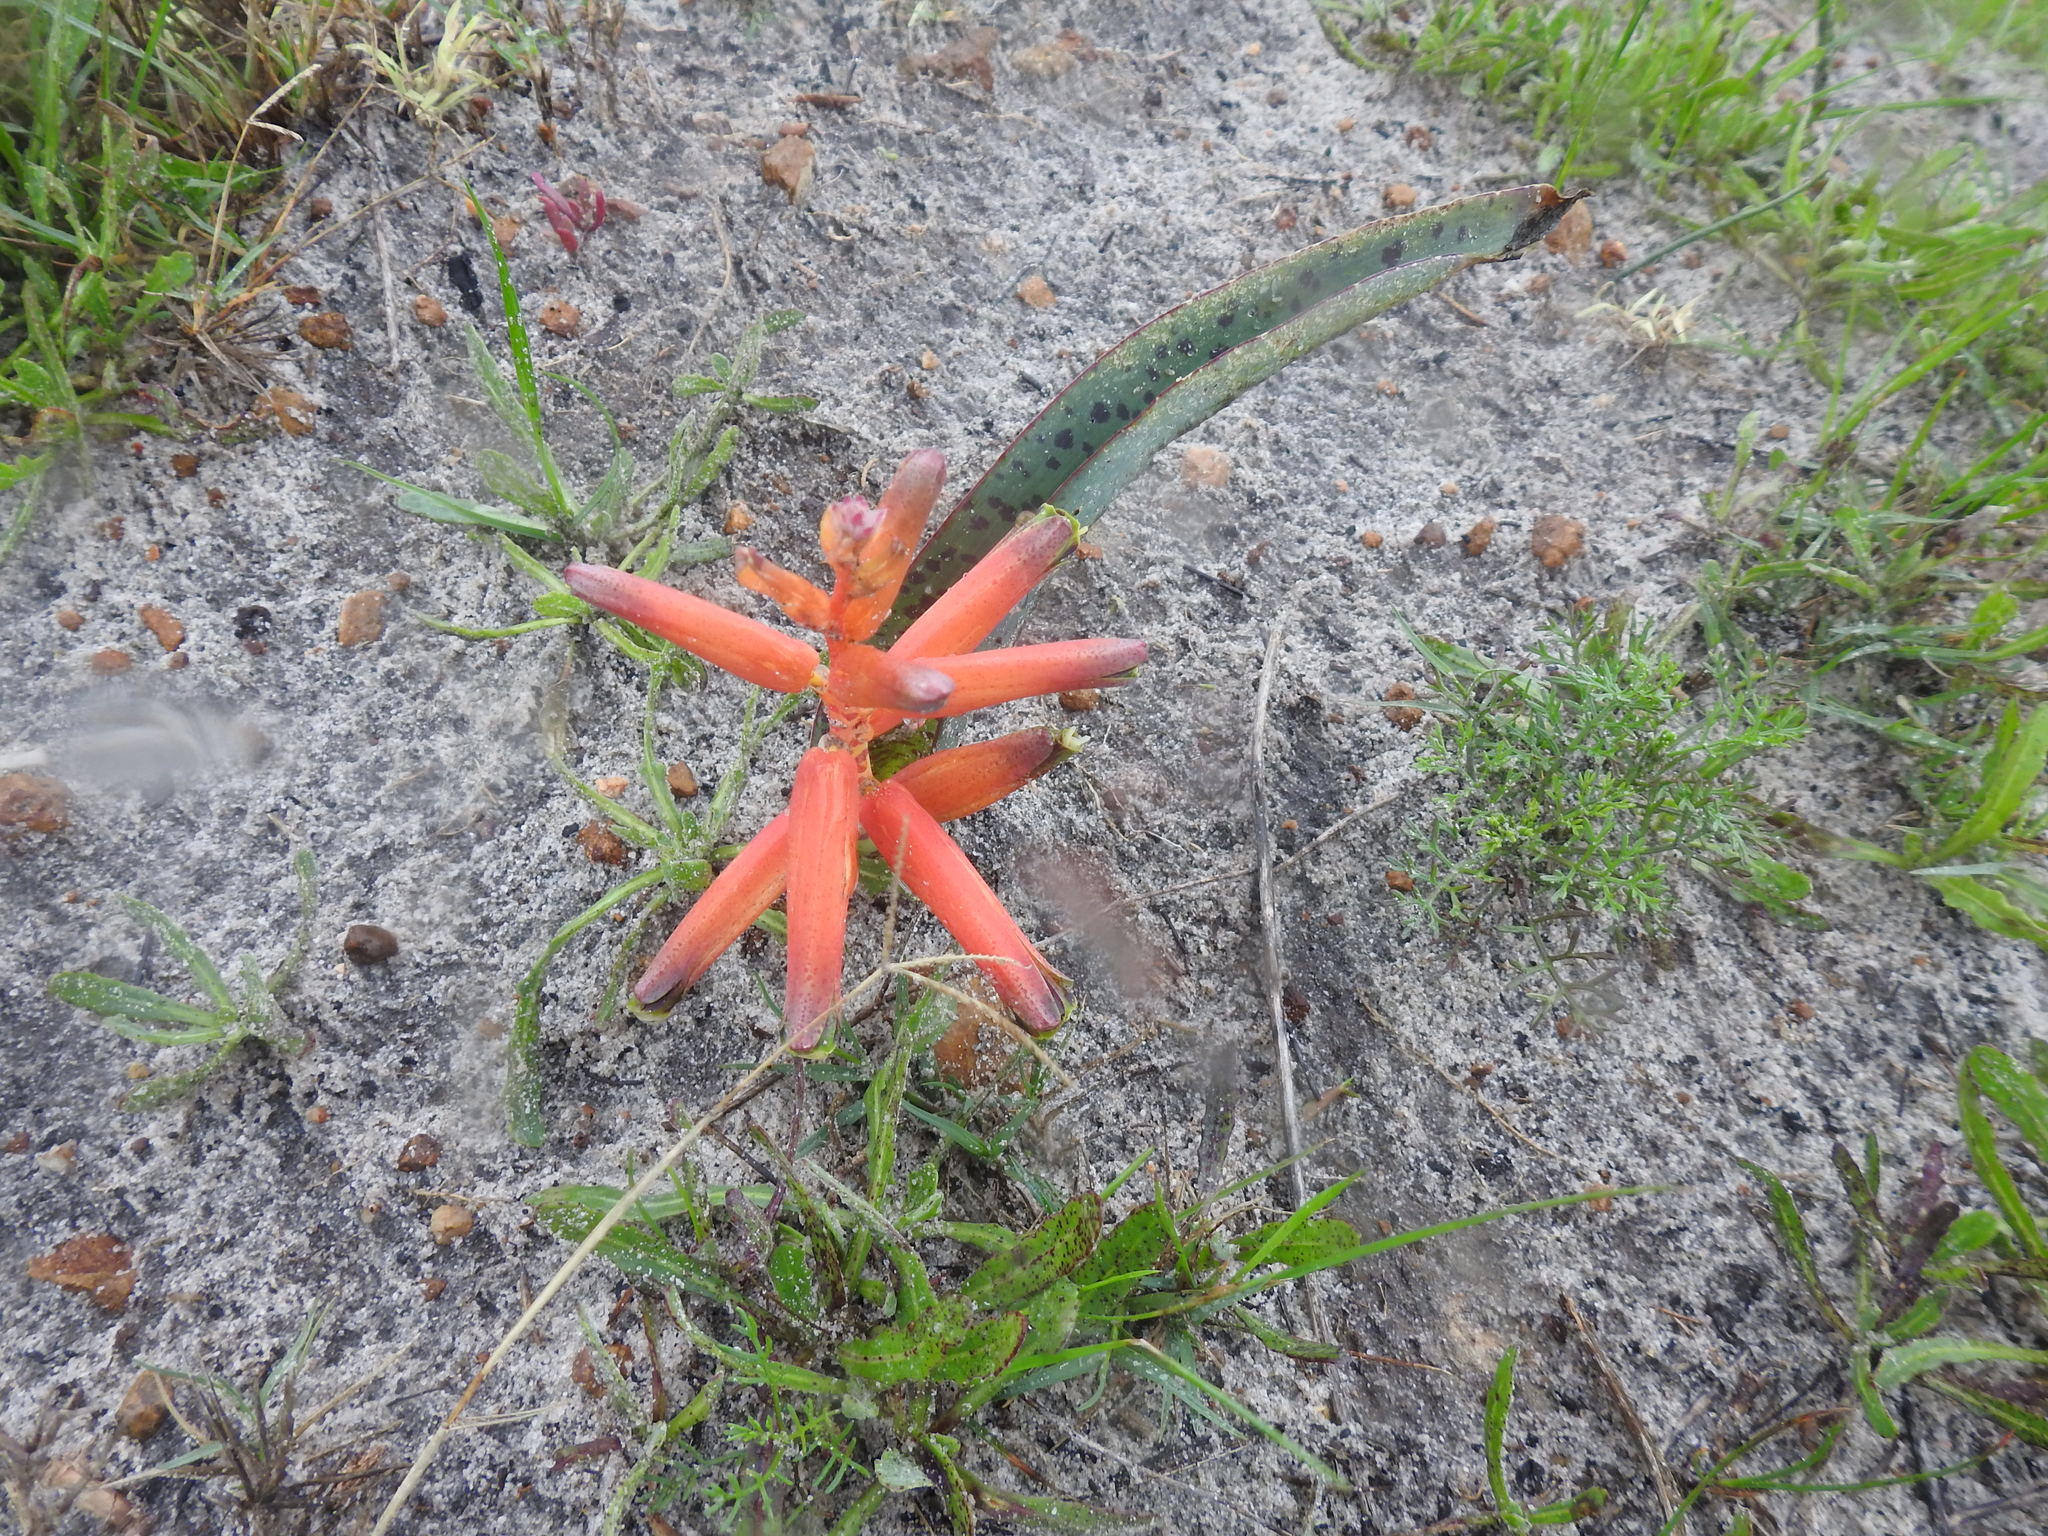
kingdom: Plantae
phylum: Tracheophyta
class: Liliopsida
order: Asparagales
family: Asparagaceae
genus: Lachenalia
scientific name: Lachenalia bulbifera
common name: Red lachenalia
